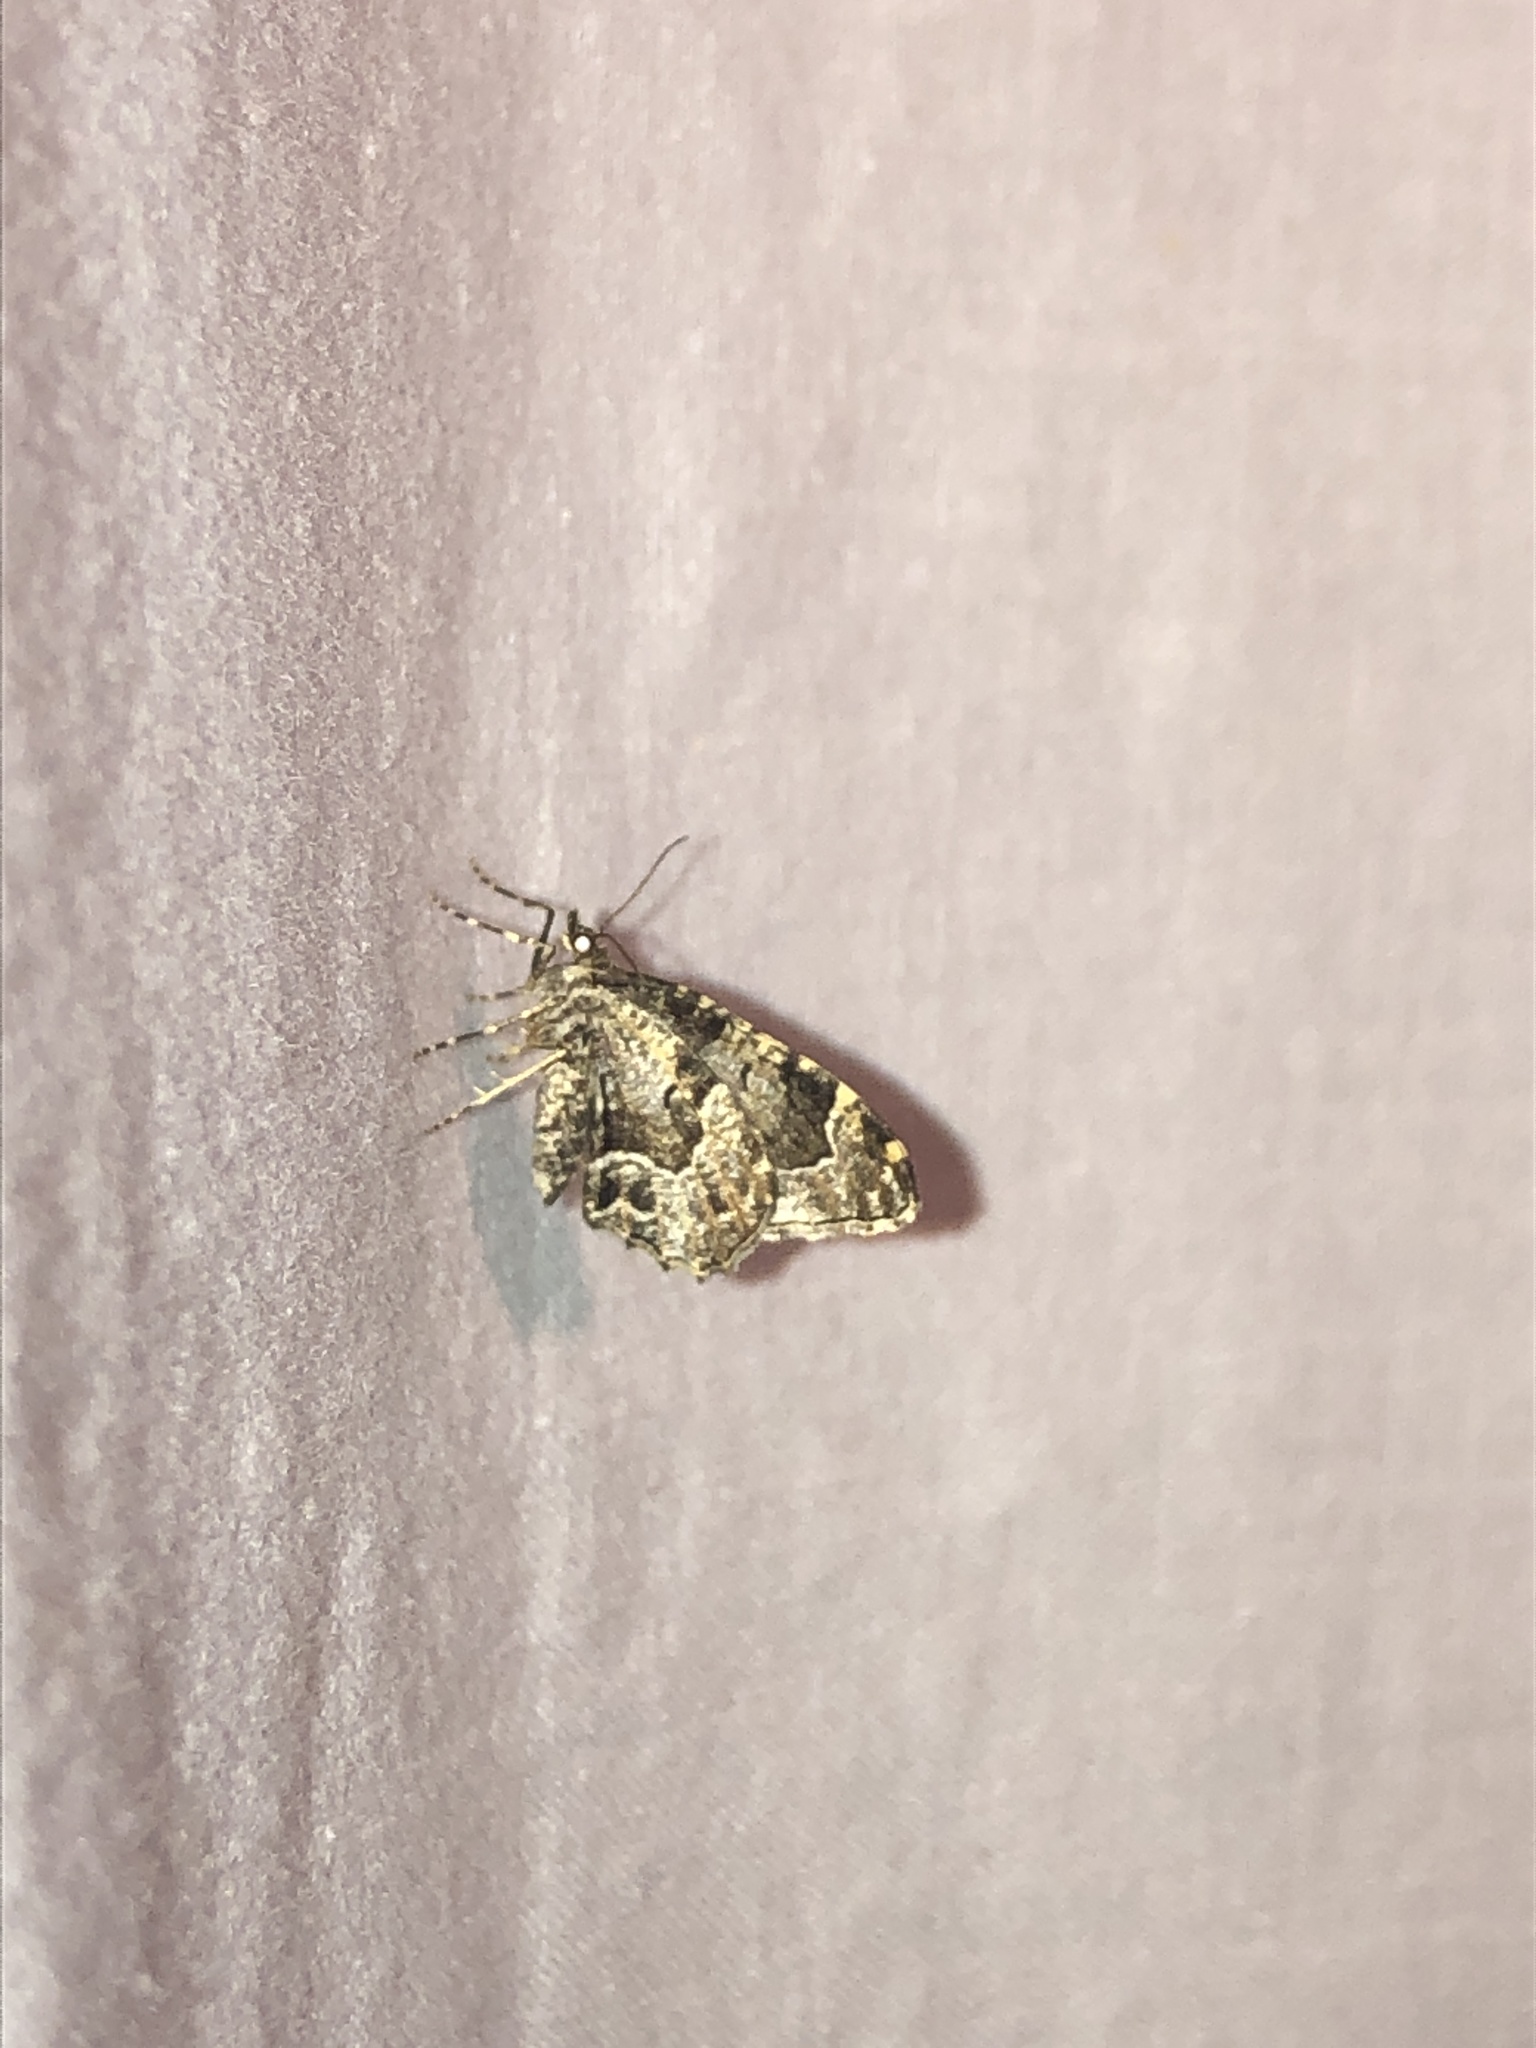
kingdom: Animalia
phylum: Arthropoda
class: Insecta
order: Lepidoptera
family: Geometridae
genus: Ceratodalia
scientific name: Ceratodalia gueneata
